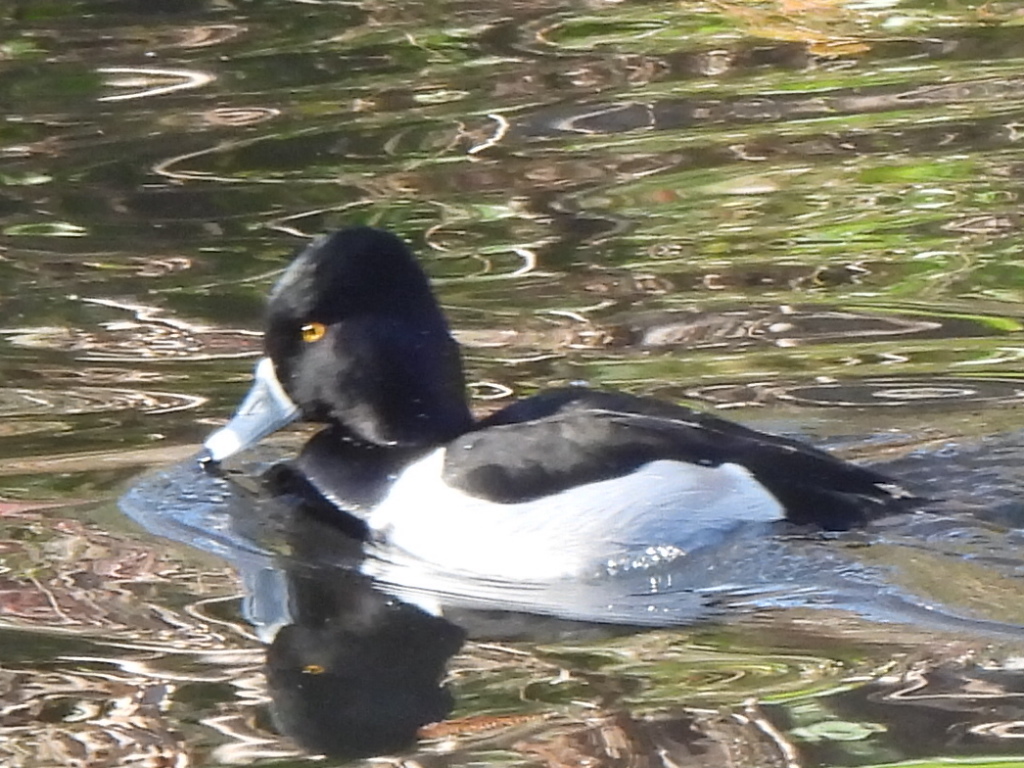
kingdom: Animalia
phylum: Chordata
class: Aves
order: Anseriformes
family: Anatidae
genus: Aythya
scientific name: Aythya collaris
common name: Ring-necked duck
